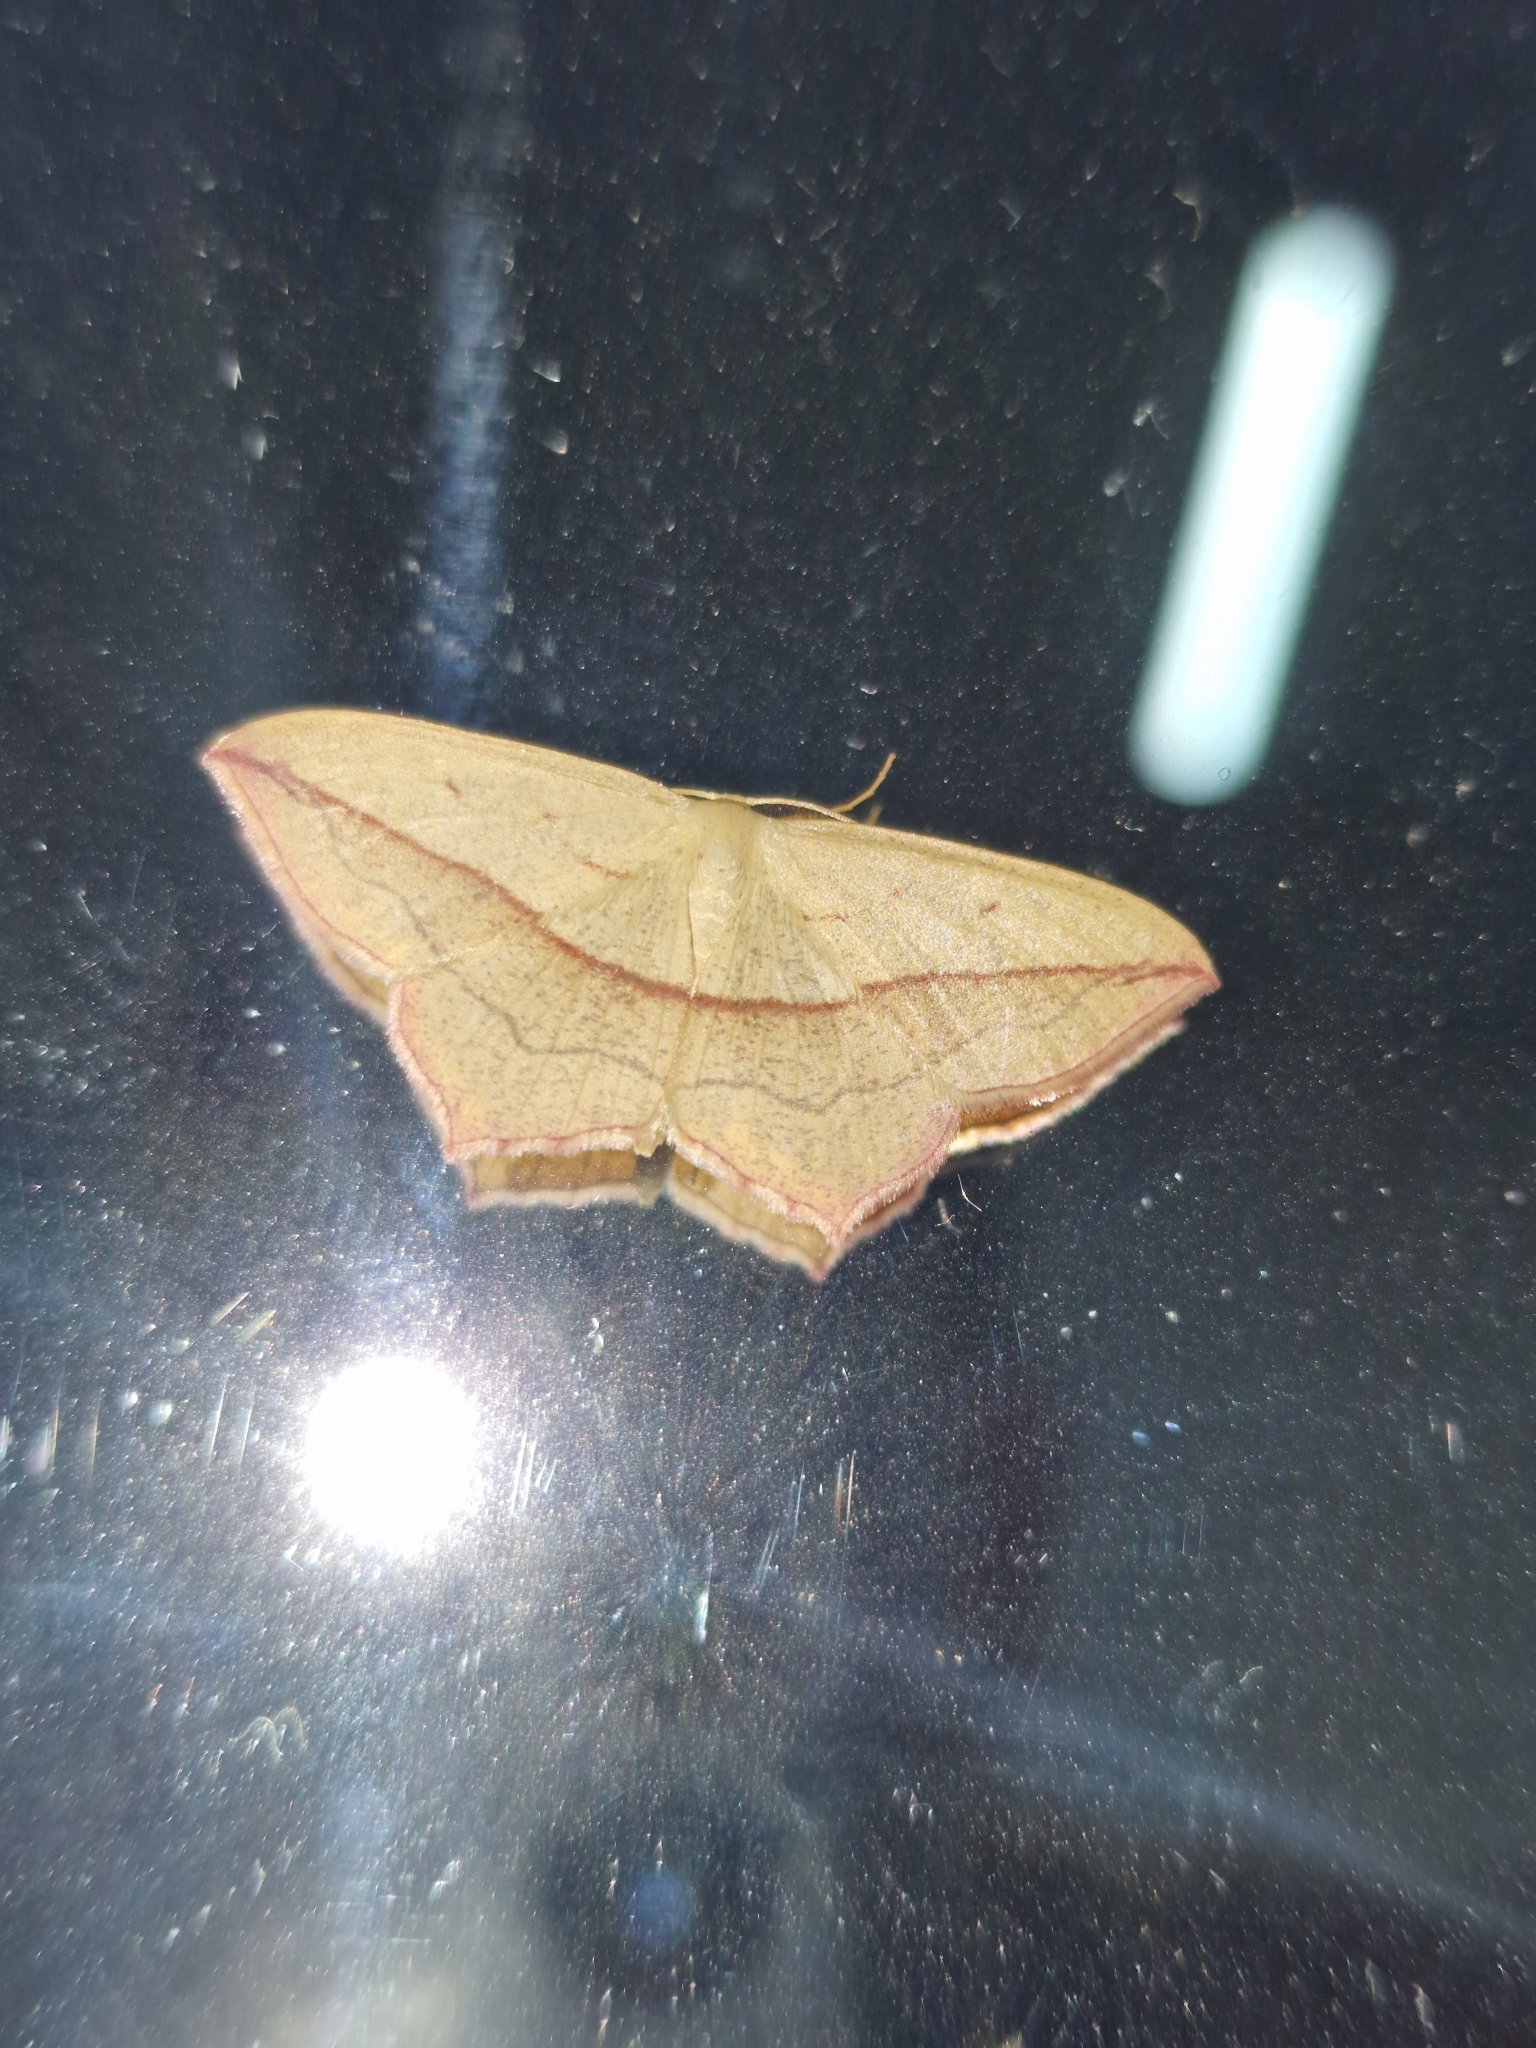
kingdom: Animalia
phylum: Arthropoda
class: Insecta
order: Lepidoptera
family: Geometridae
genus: Timandra
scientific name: Timandra comae
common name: Blood-vein
